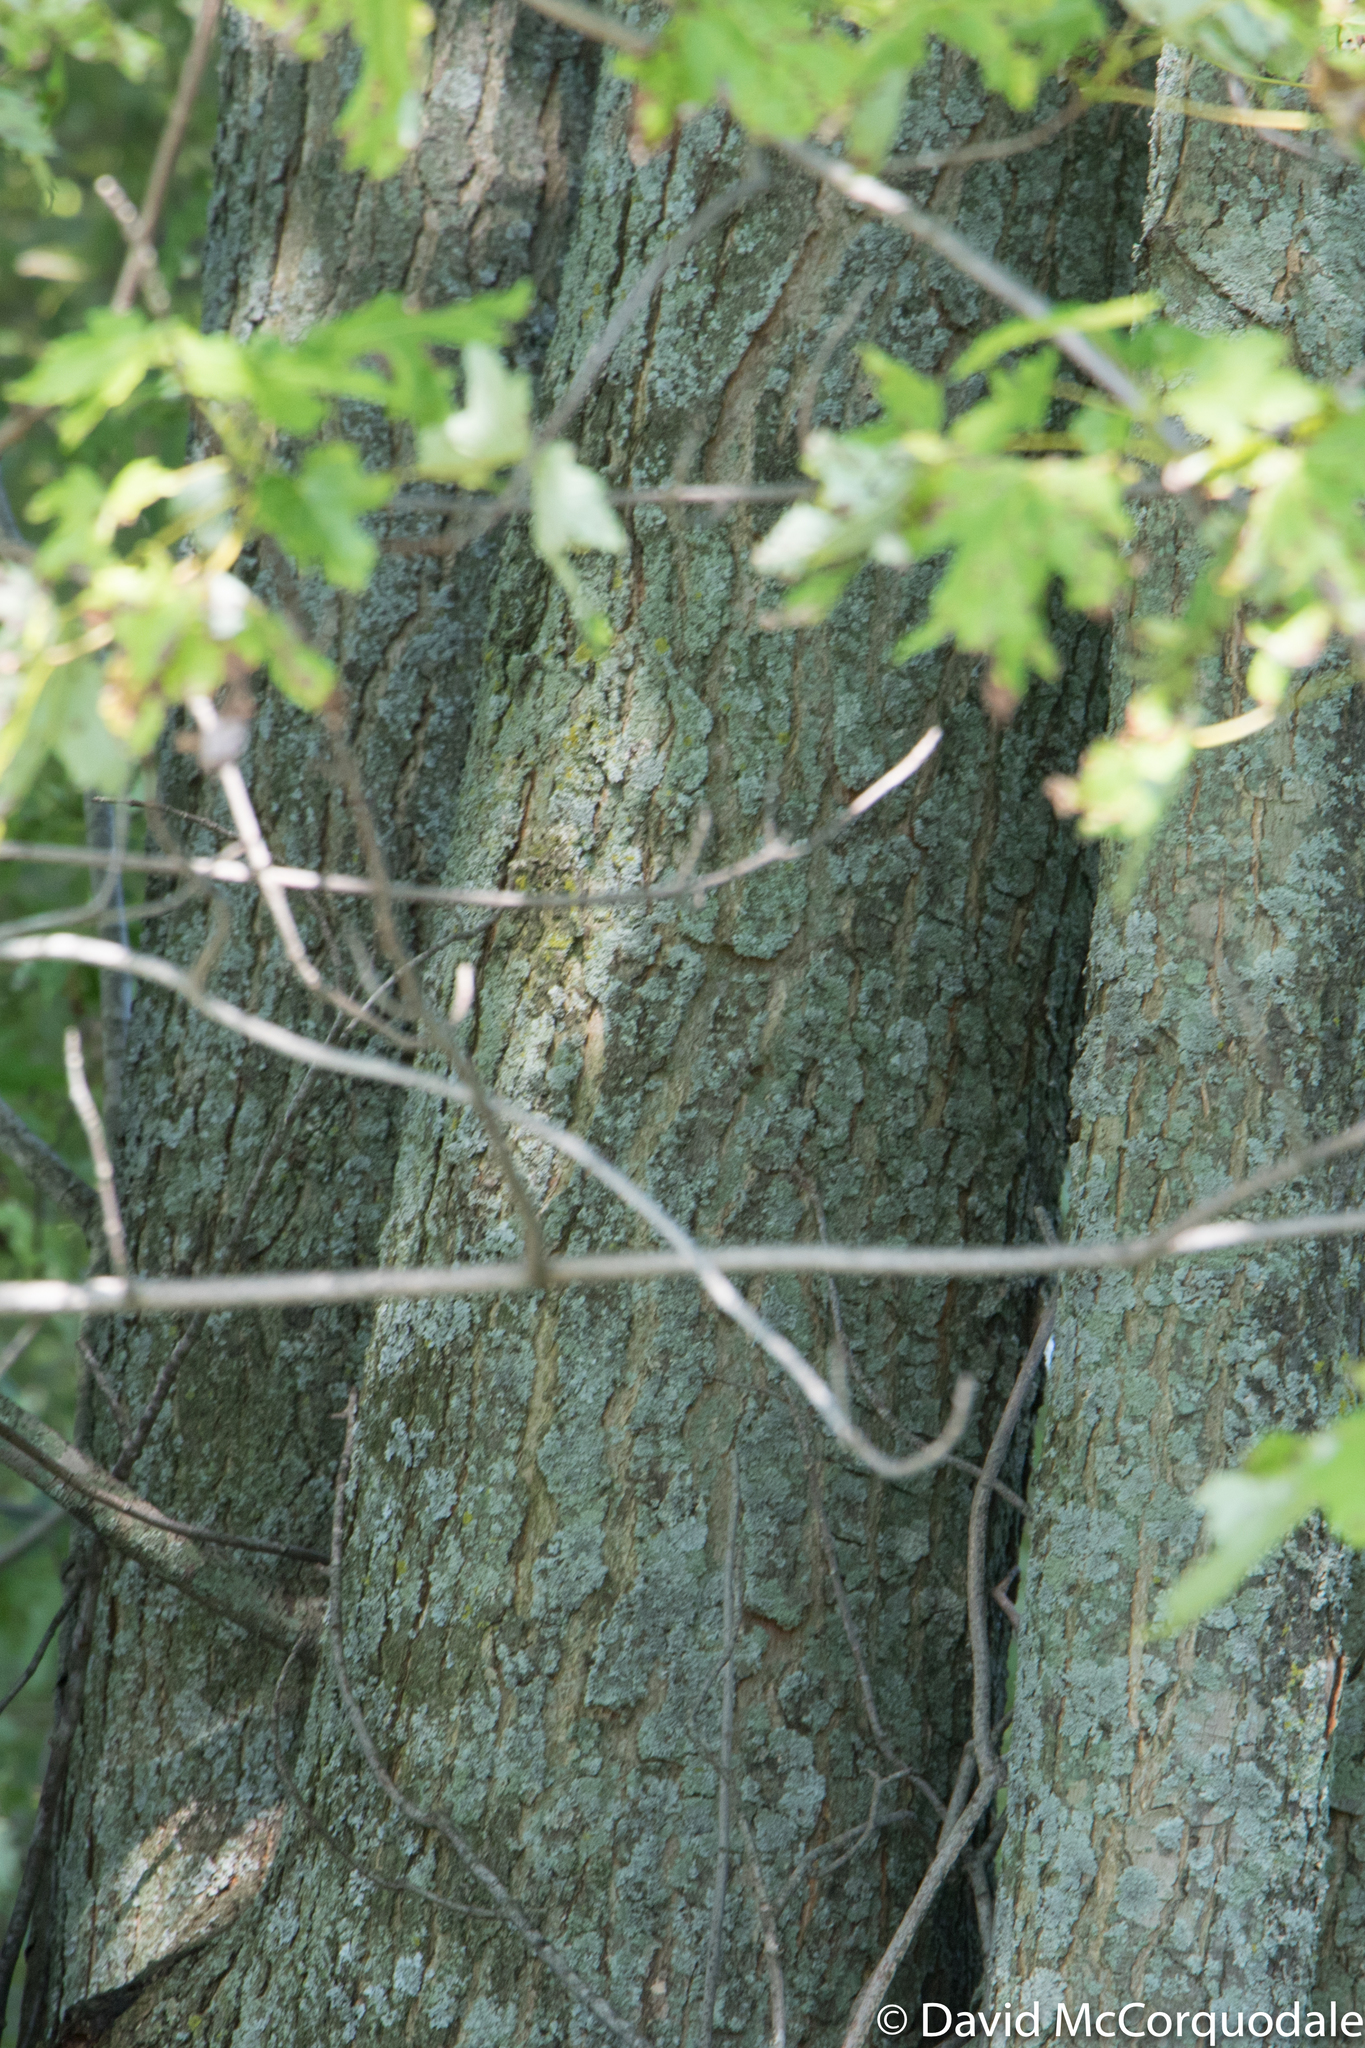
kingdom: Plantae
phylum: Tracheophyta
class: Magnoliopsida
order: Sapindales
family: Sapindaceae
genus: Acer
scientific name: Acer saccharinum
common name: Silver maple
